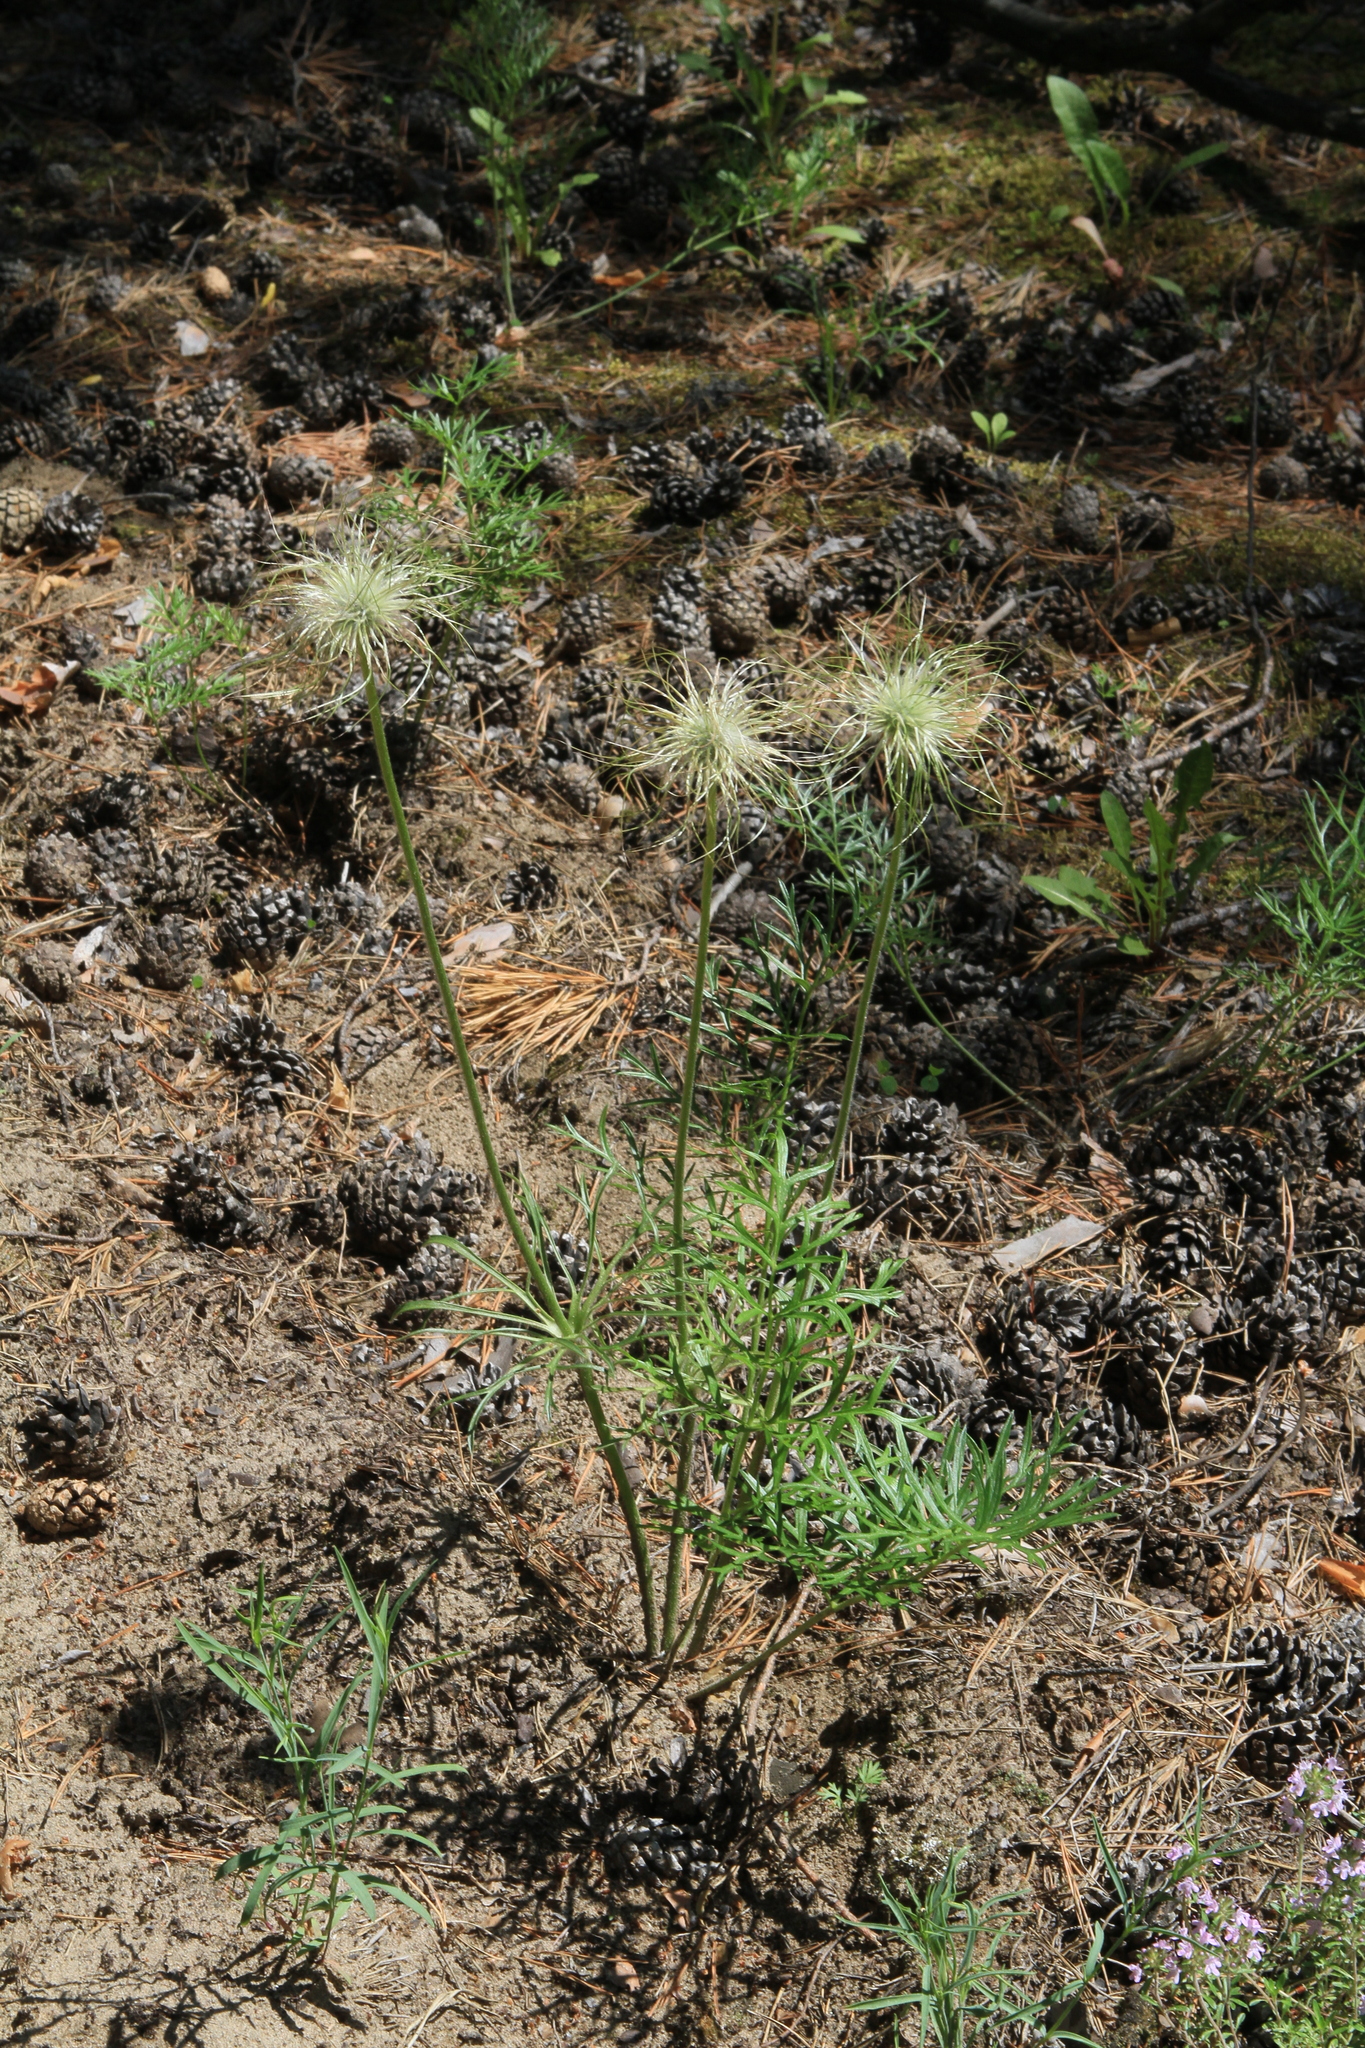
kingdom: Plantae
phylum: Tracheophyta
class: Magnoliopsida
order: Ranunculales
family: Ranunculaceae
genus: Pulsatilla
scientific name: Pulsatilla turczaninovii
